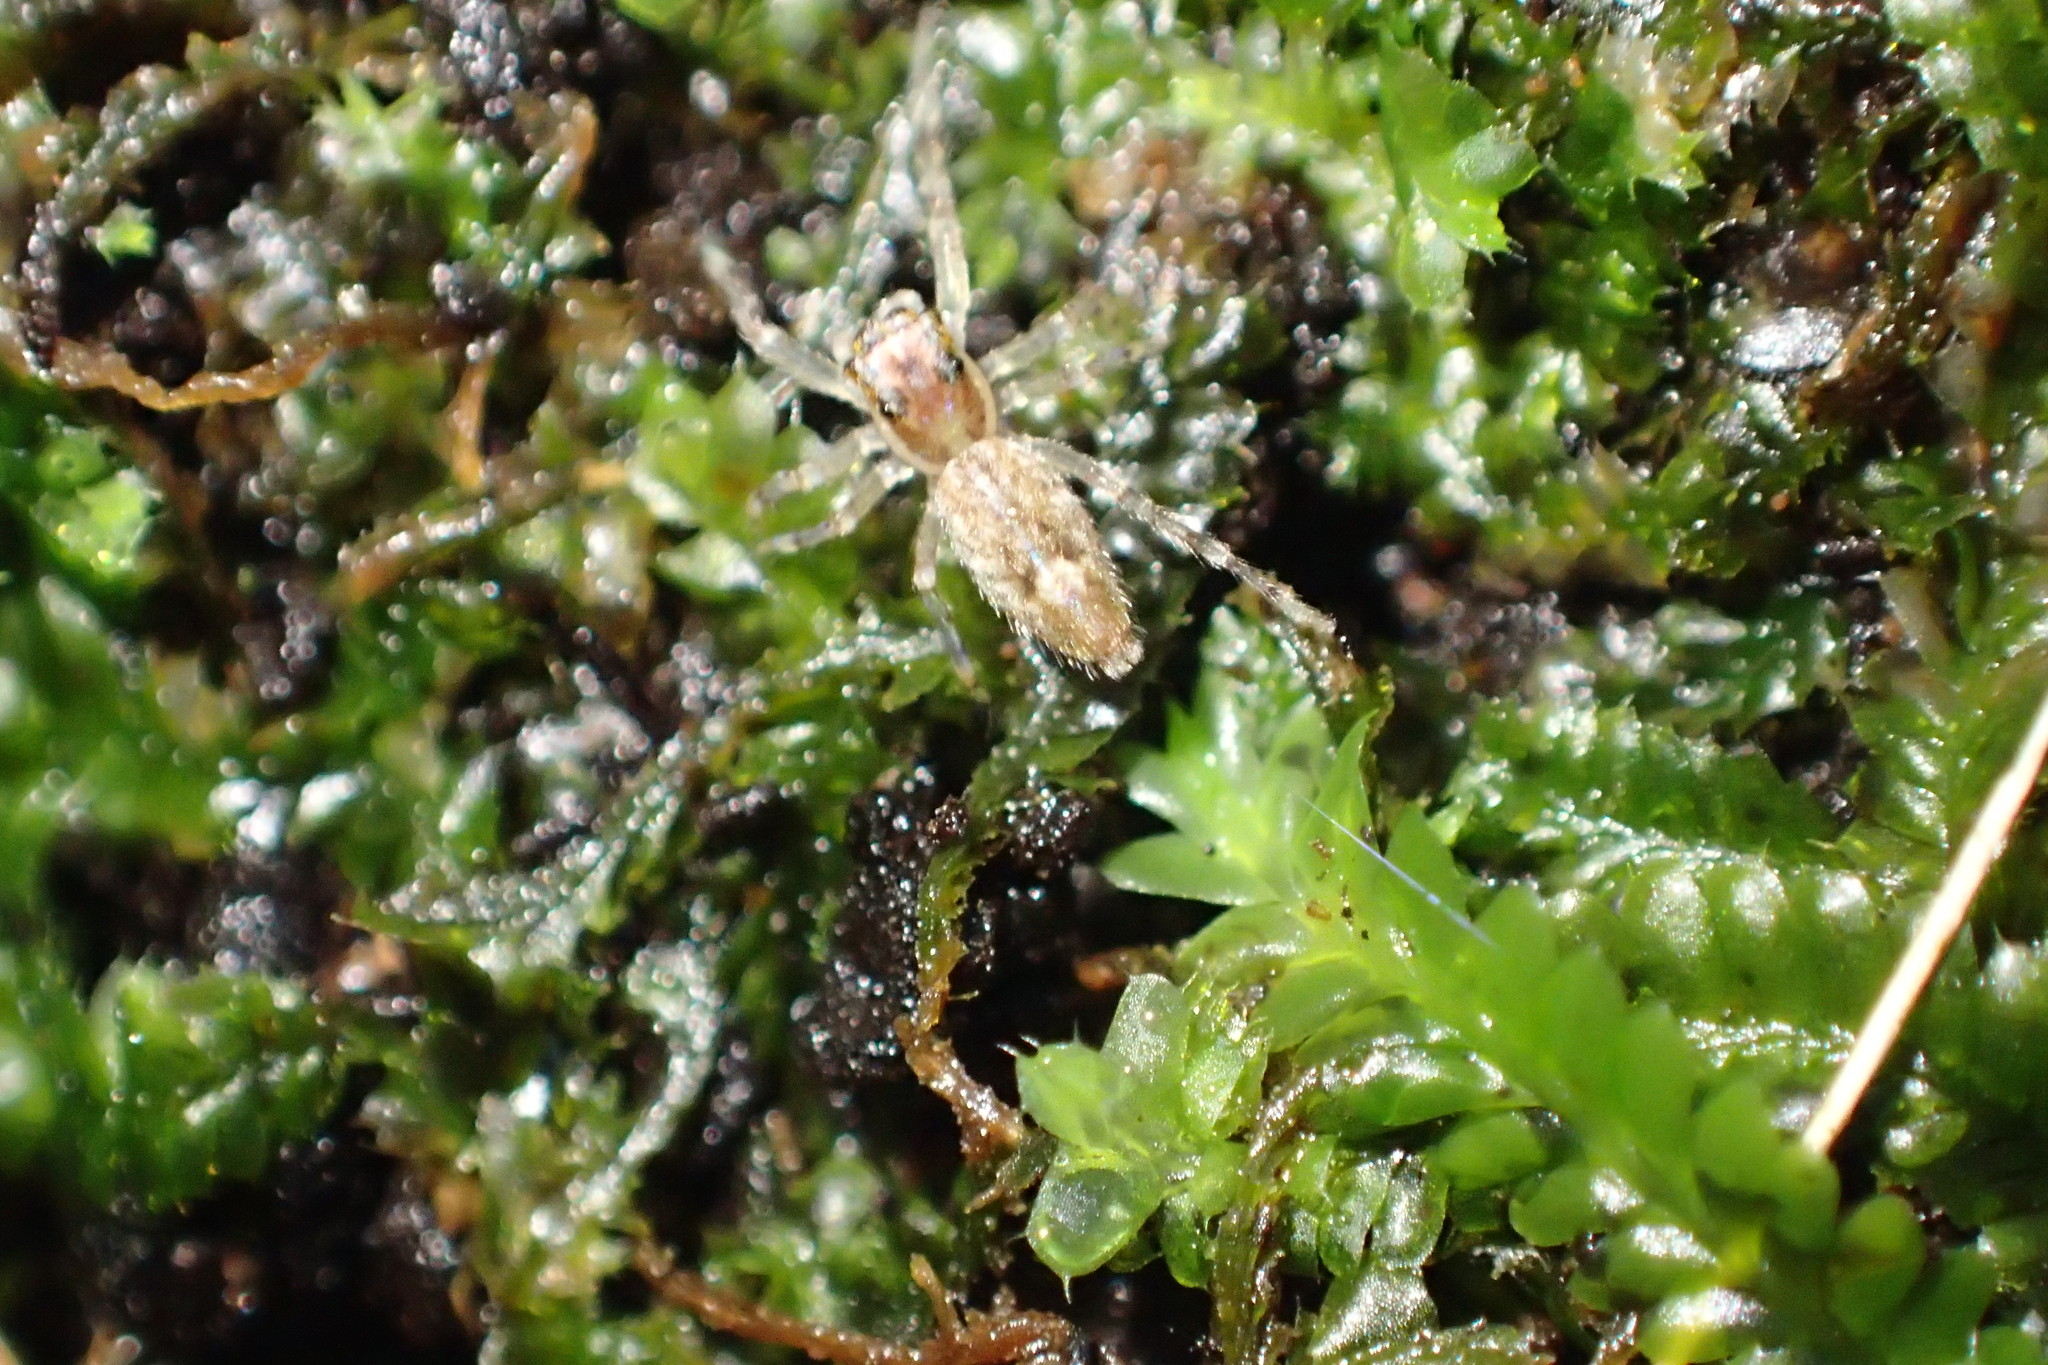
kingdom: Animalia
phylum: Arthropoda
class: Arachnida
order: Araneae
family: Salticidae
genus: Helpis
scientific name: Helpis minitabunda
